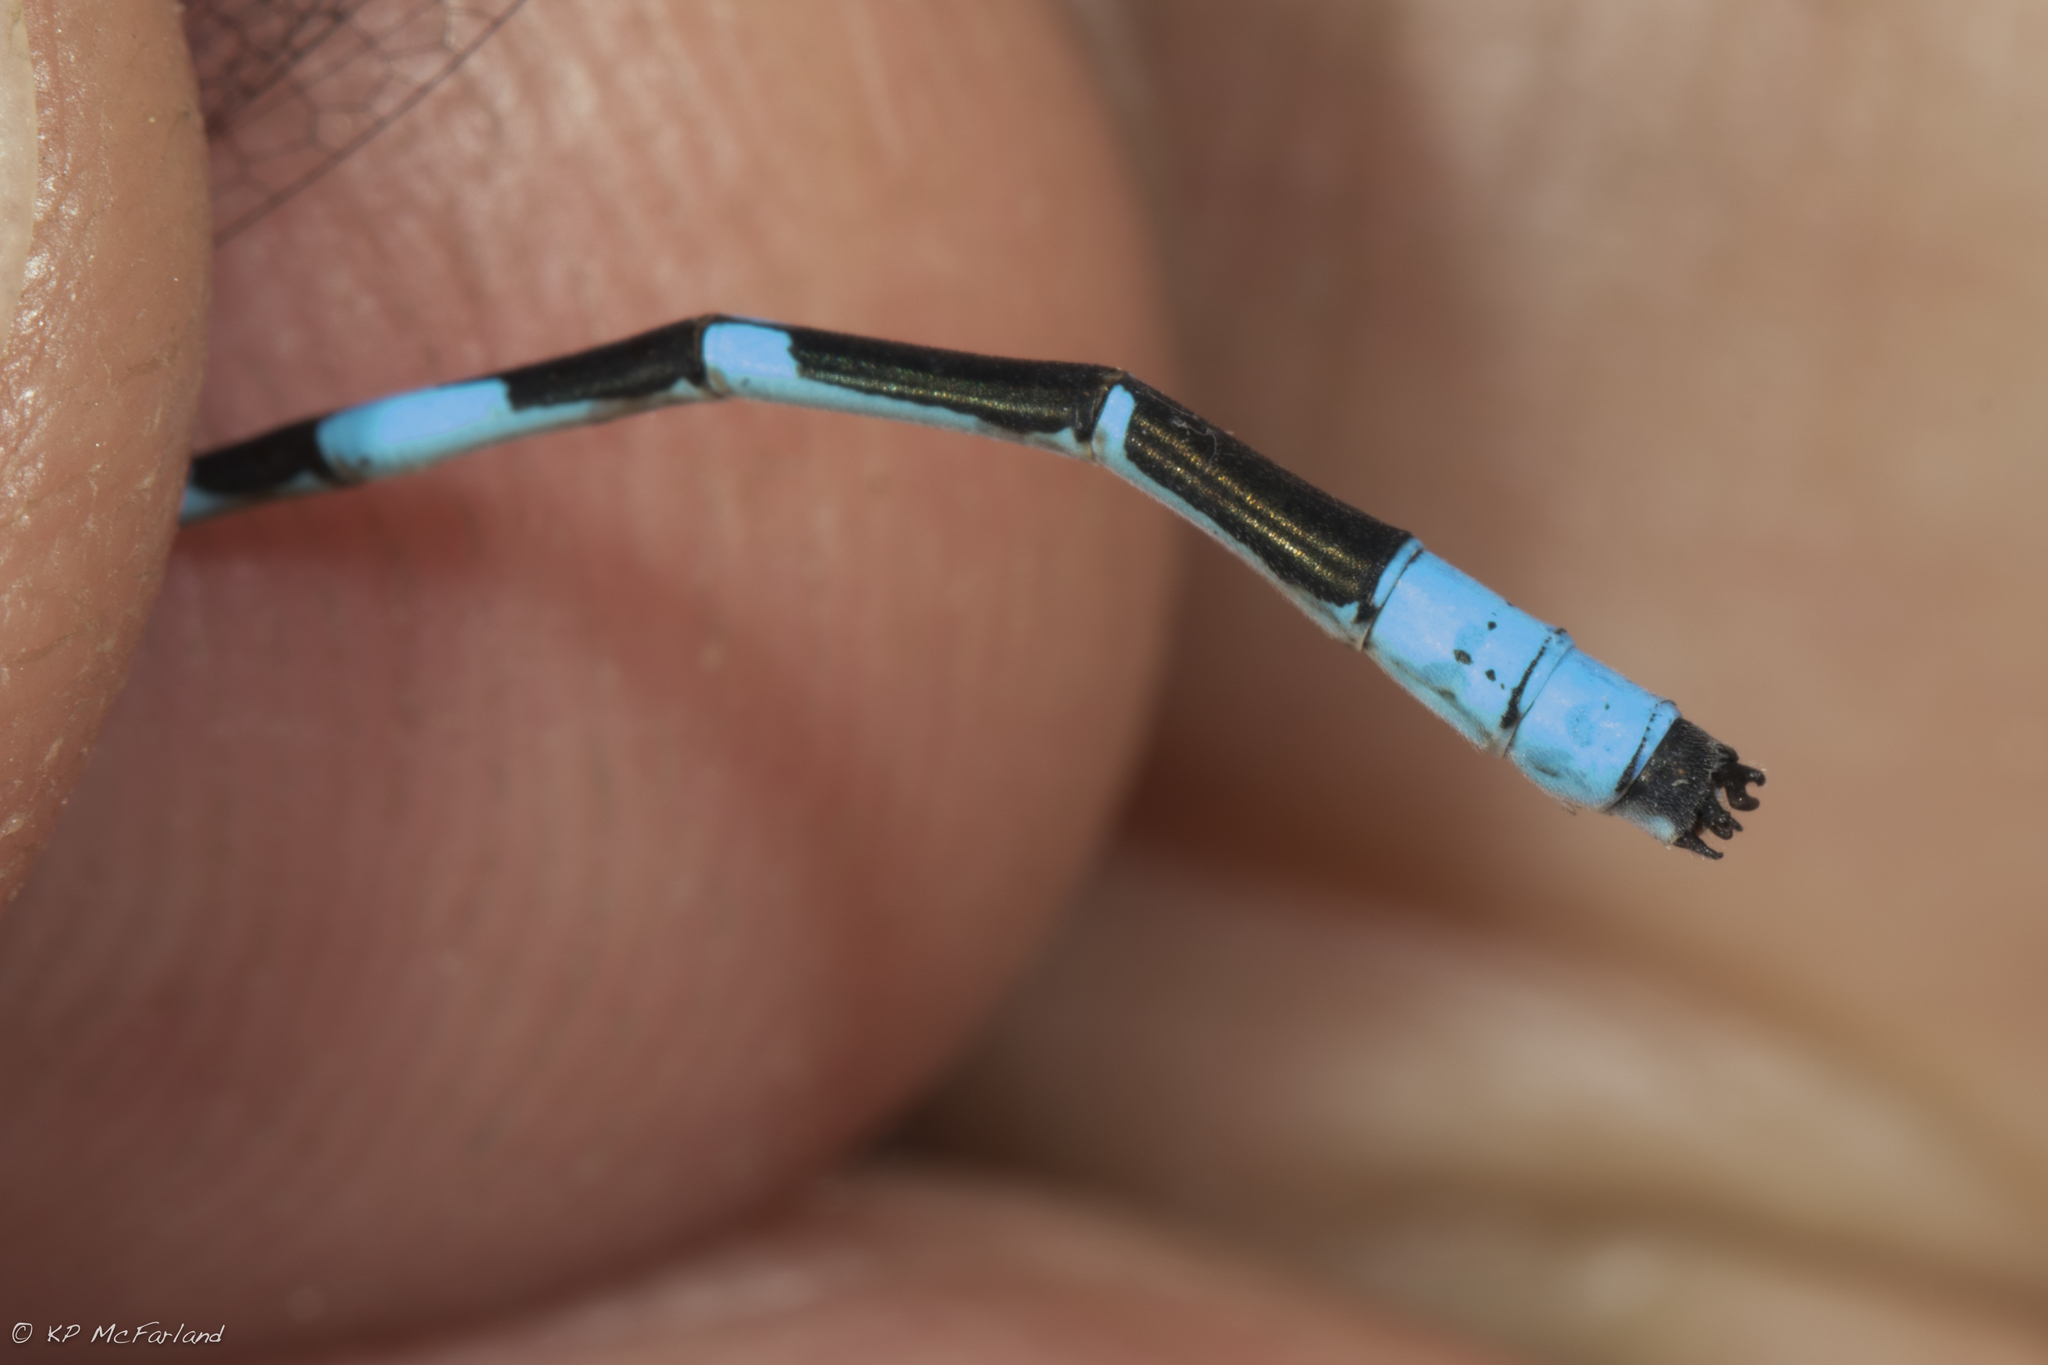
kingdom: Animalia
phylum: Arthropoda
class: Insecta
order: Odonata
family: Coenagrionidae
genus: Enallagma
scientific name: Enallagma ebrium
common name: Marsh bluet
